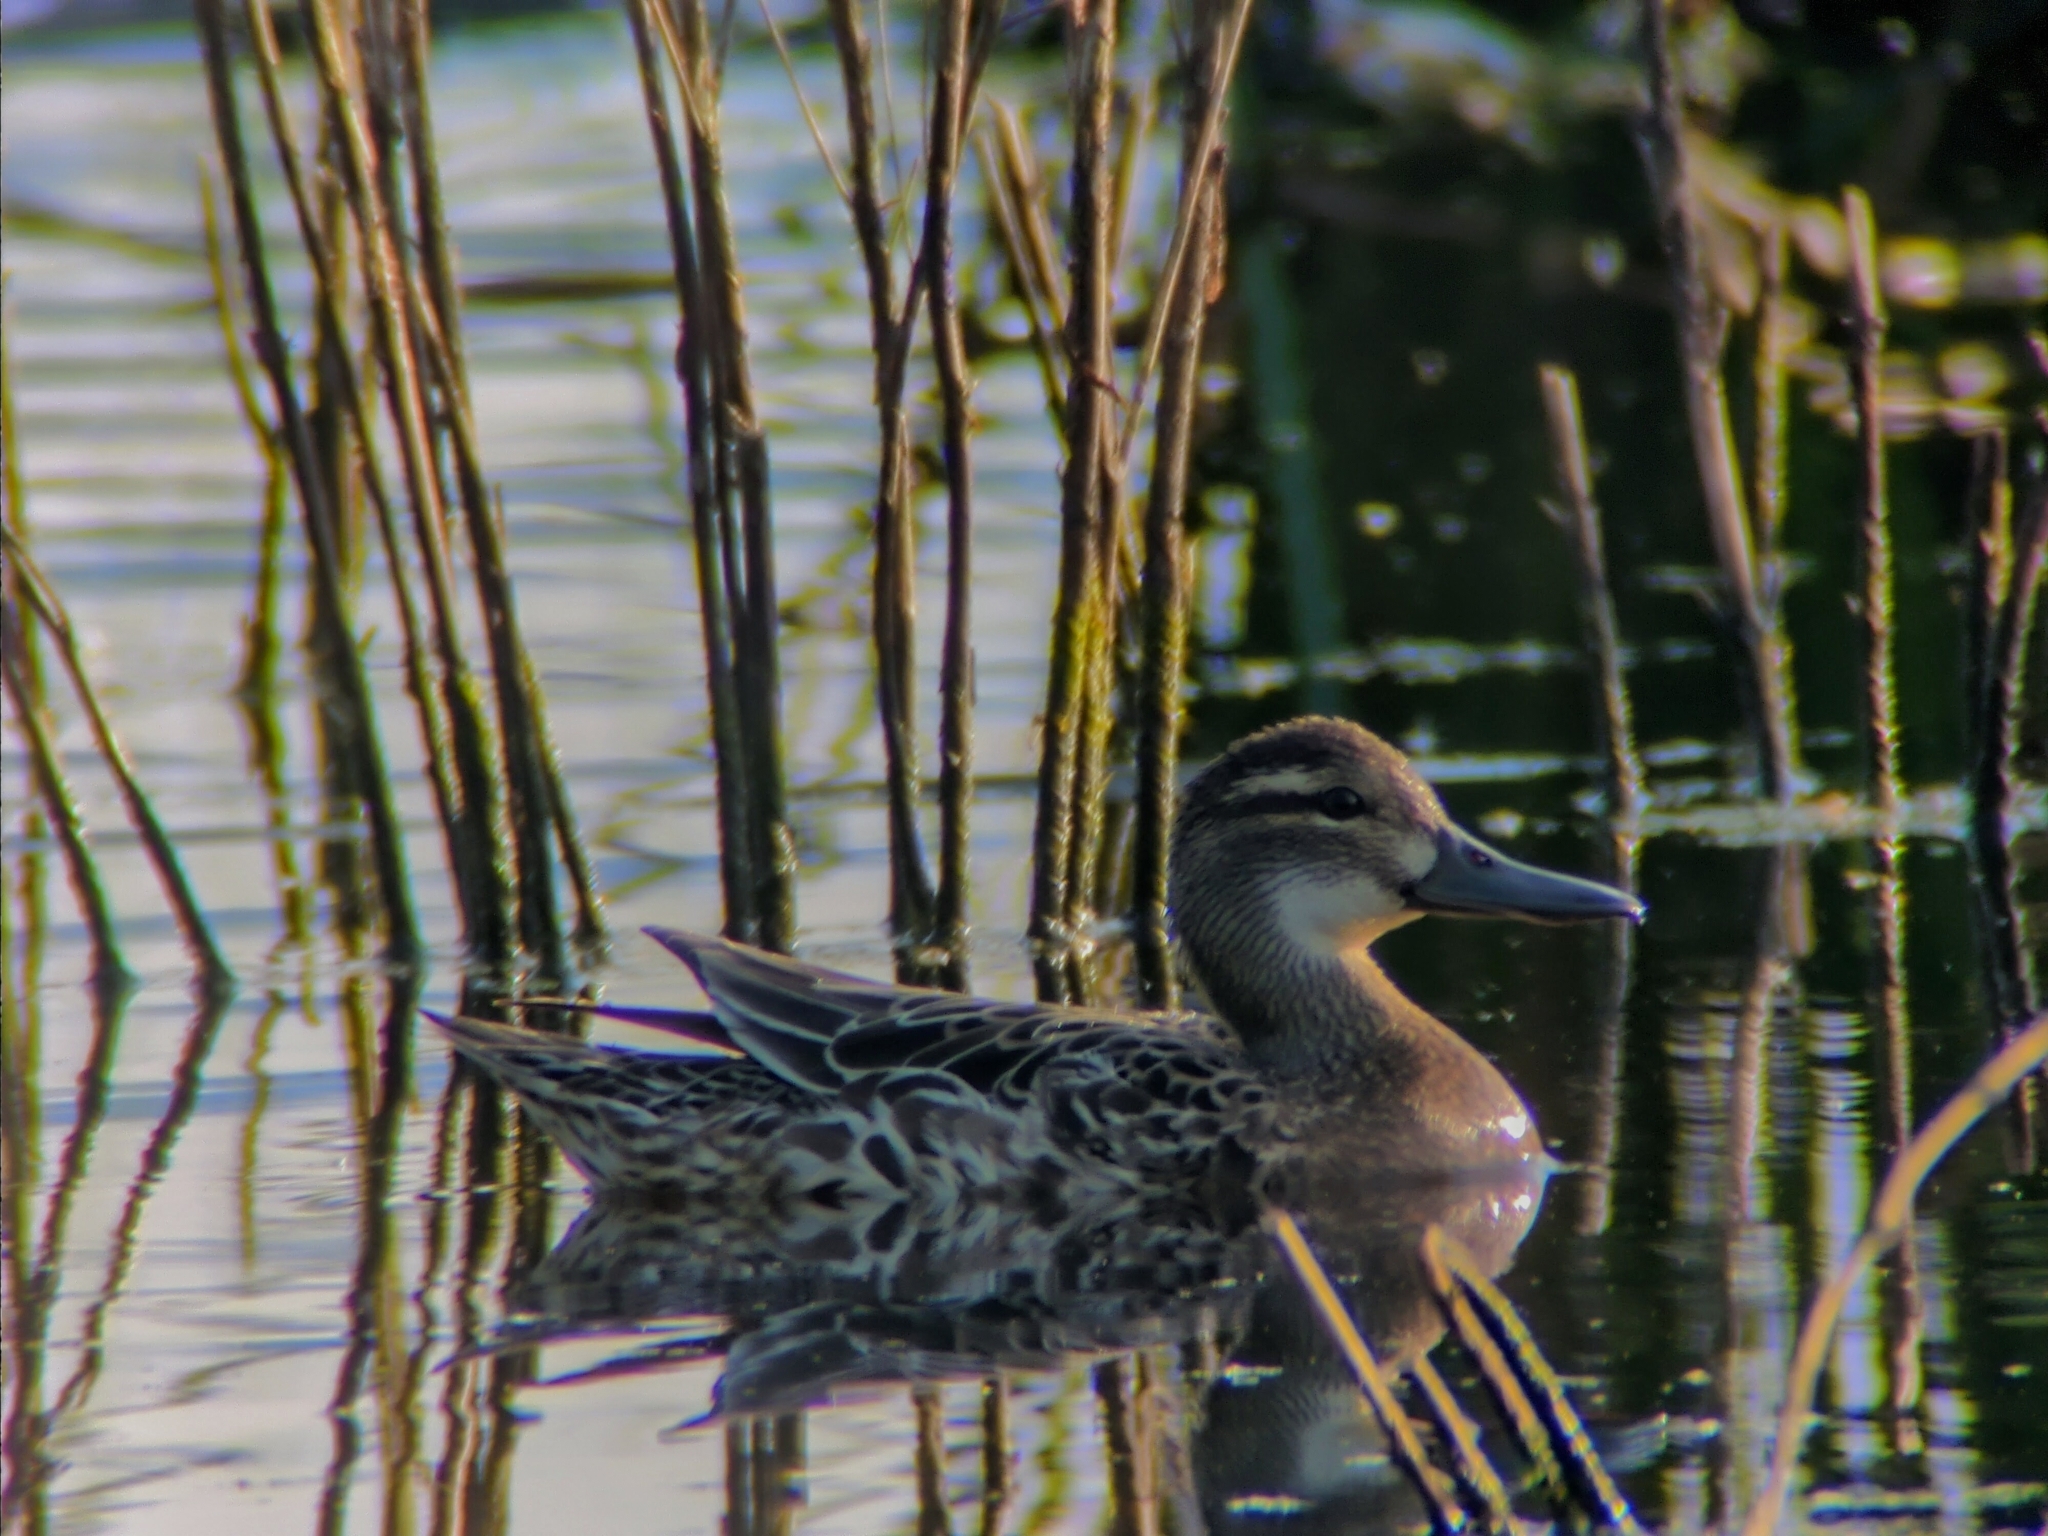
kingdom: Animalia
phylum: Chordata
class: Aves
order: Anseriformes
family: Anatidae
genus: Spatula
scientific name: Spatula querquedula
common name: Garganey
